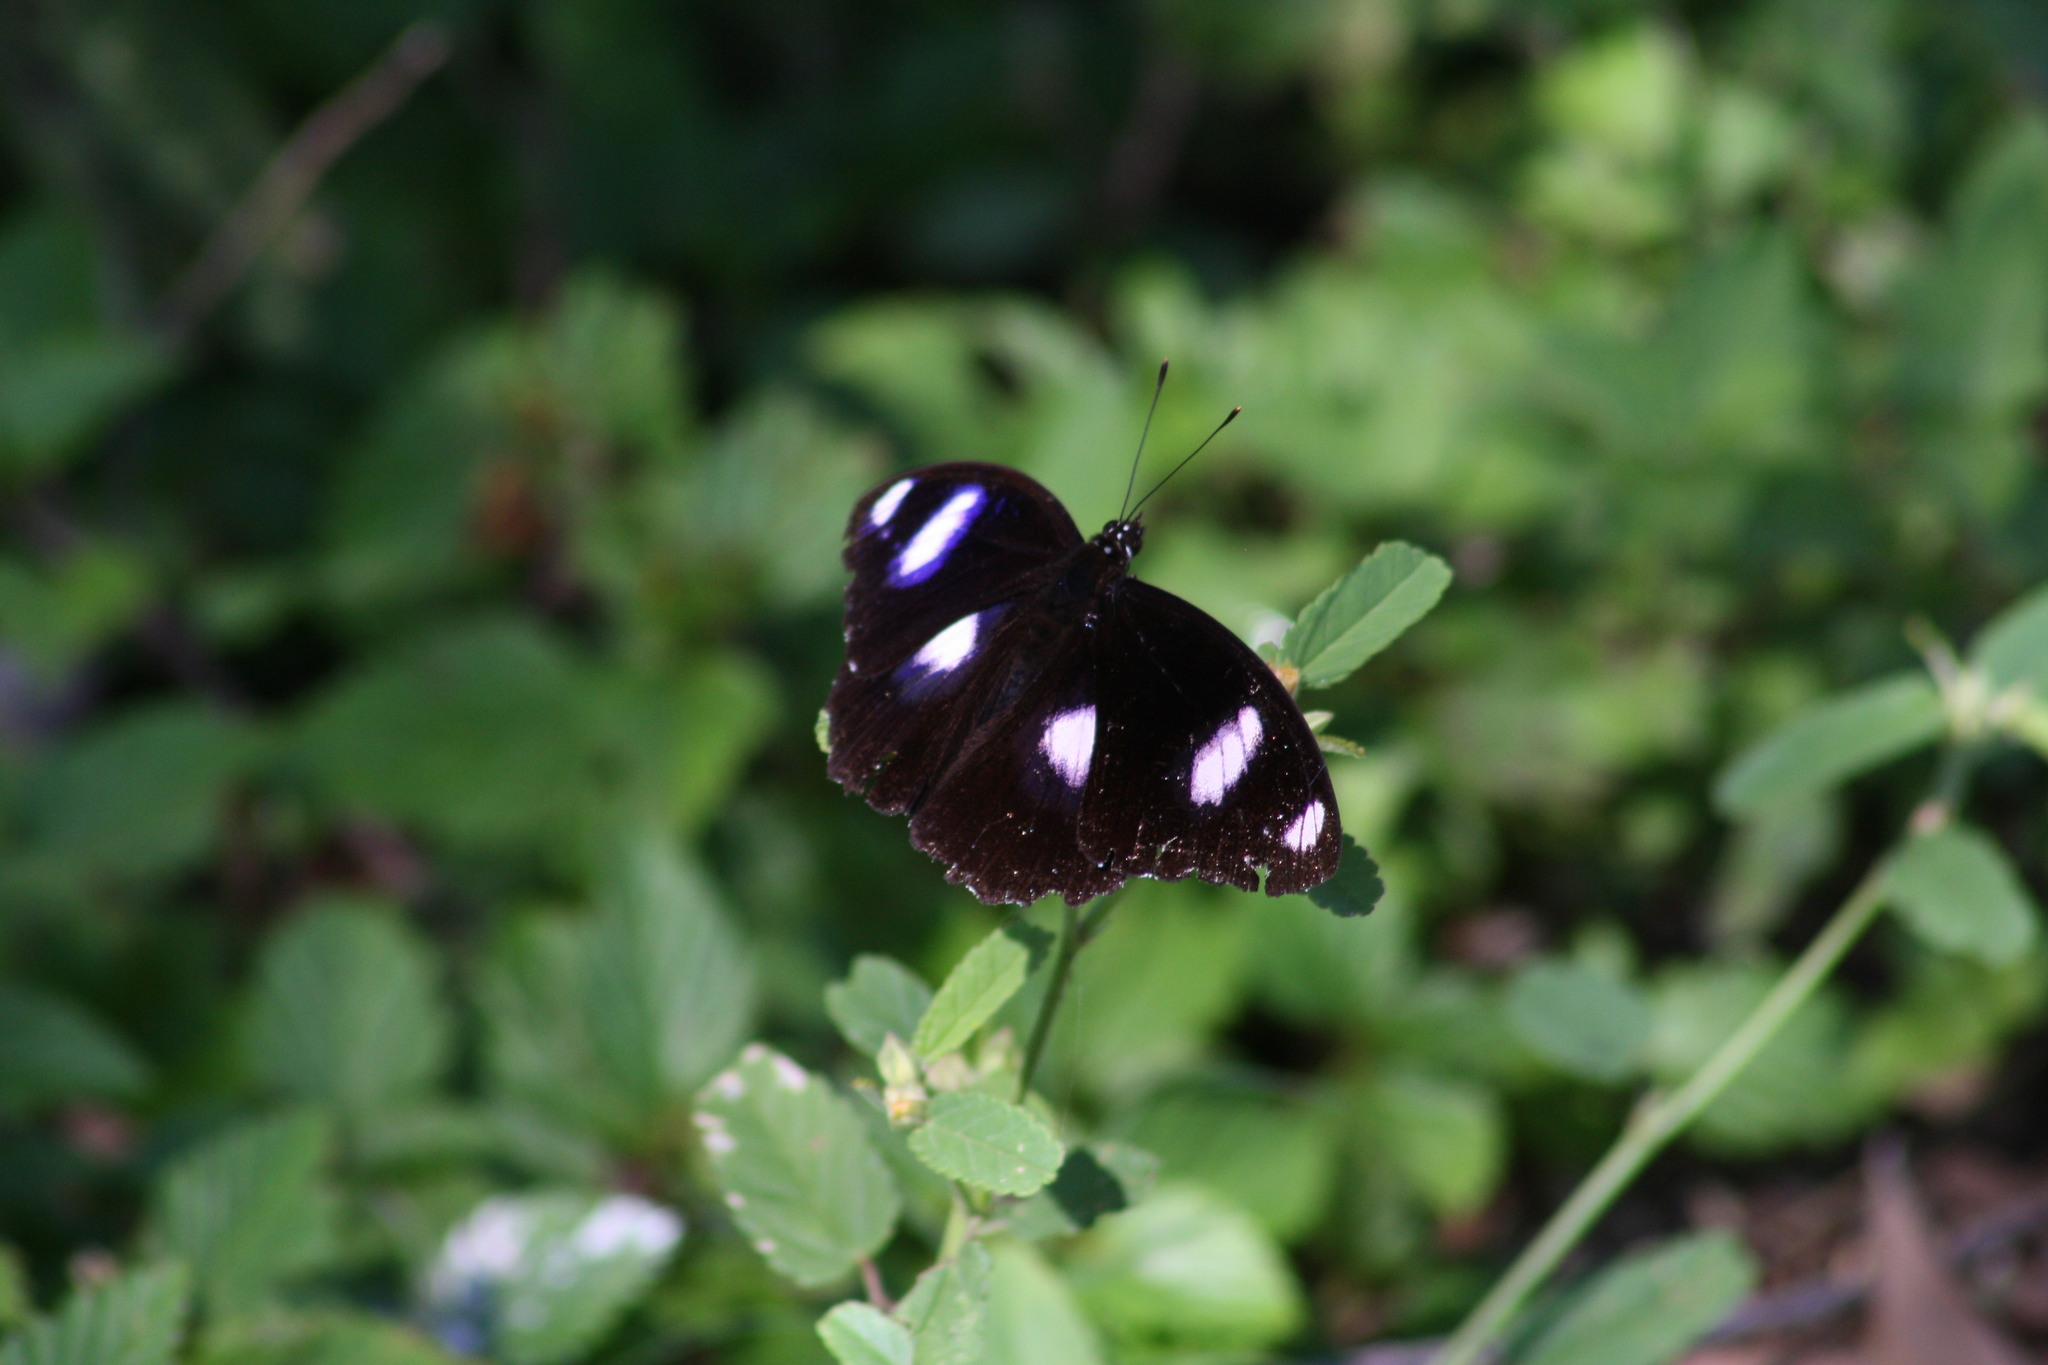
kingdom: Animalia
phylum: Arthropoda
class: Insecta
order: Lepidoptera
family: Nymphalidae
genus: Hypolimnas
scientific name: Hypolimnas bolina
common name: Great eggfly
